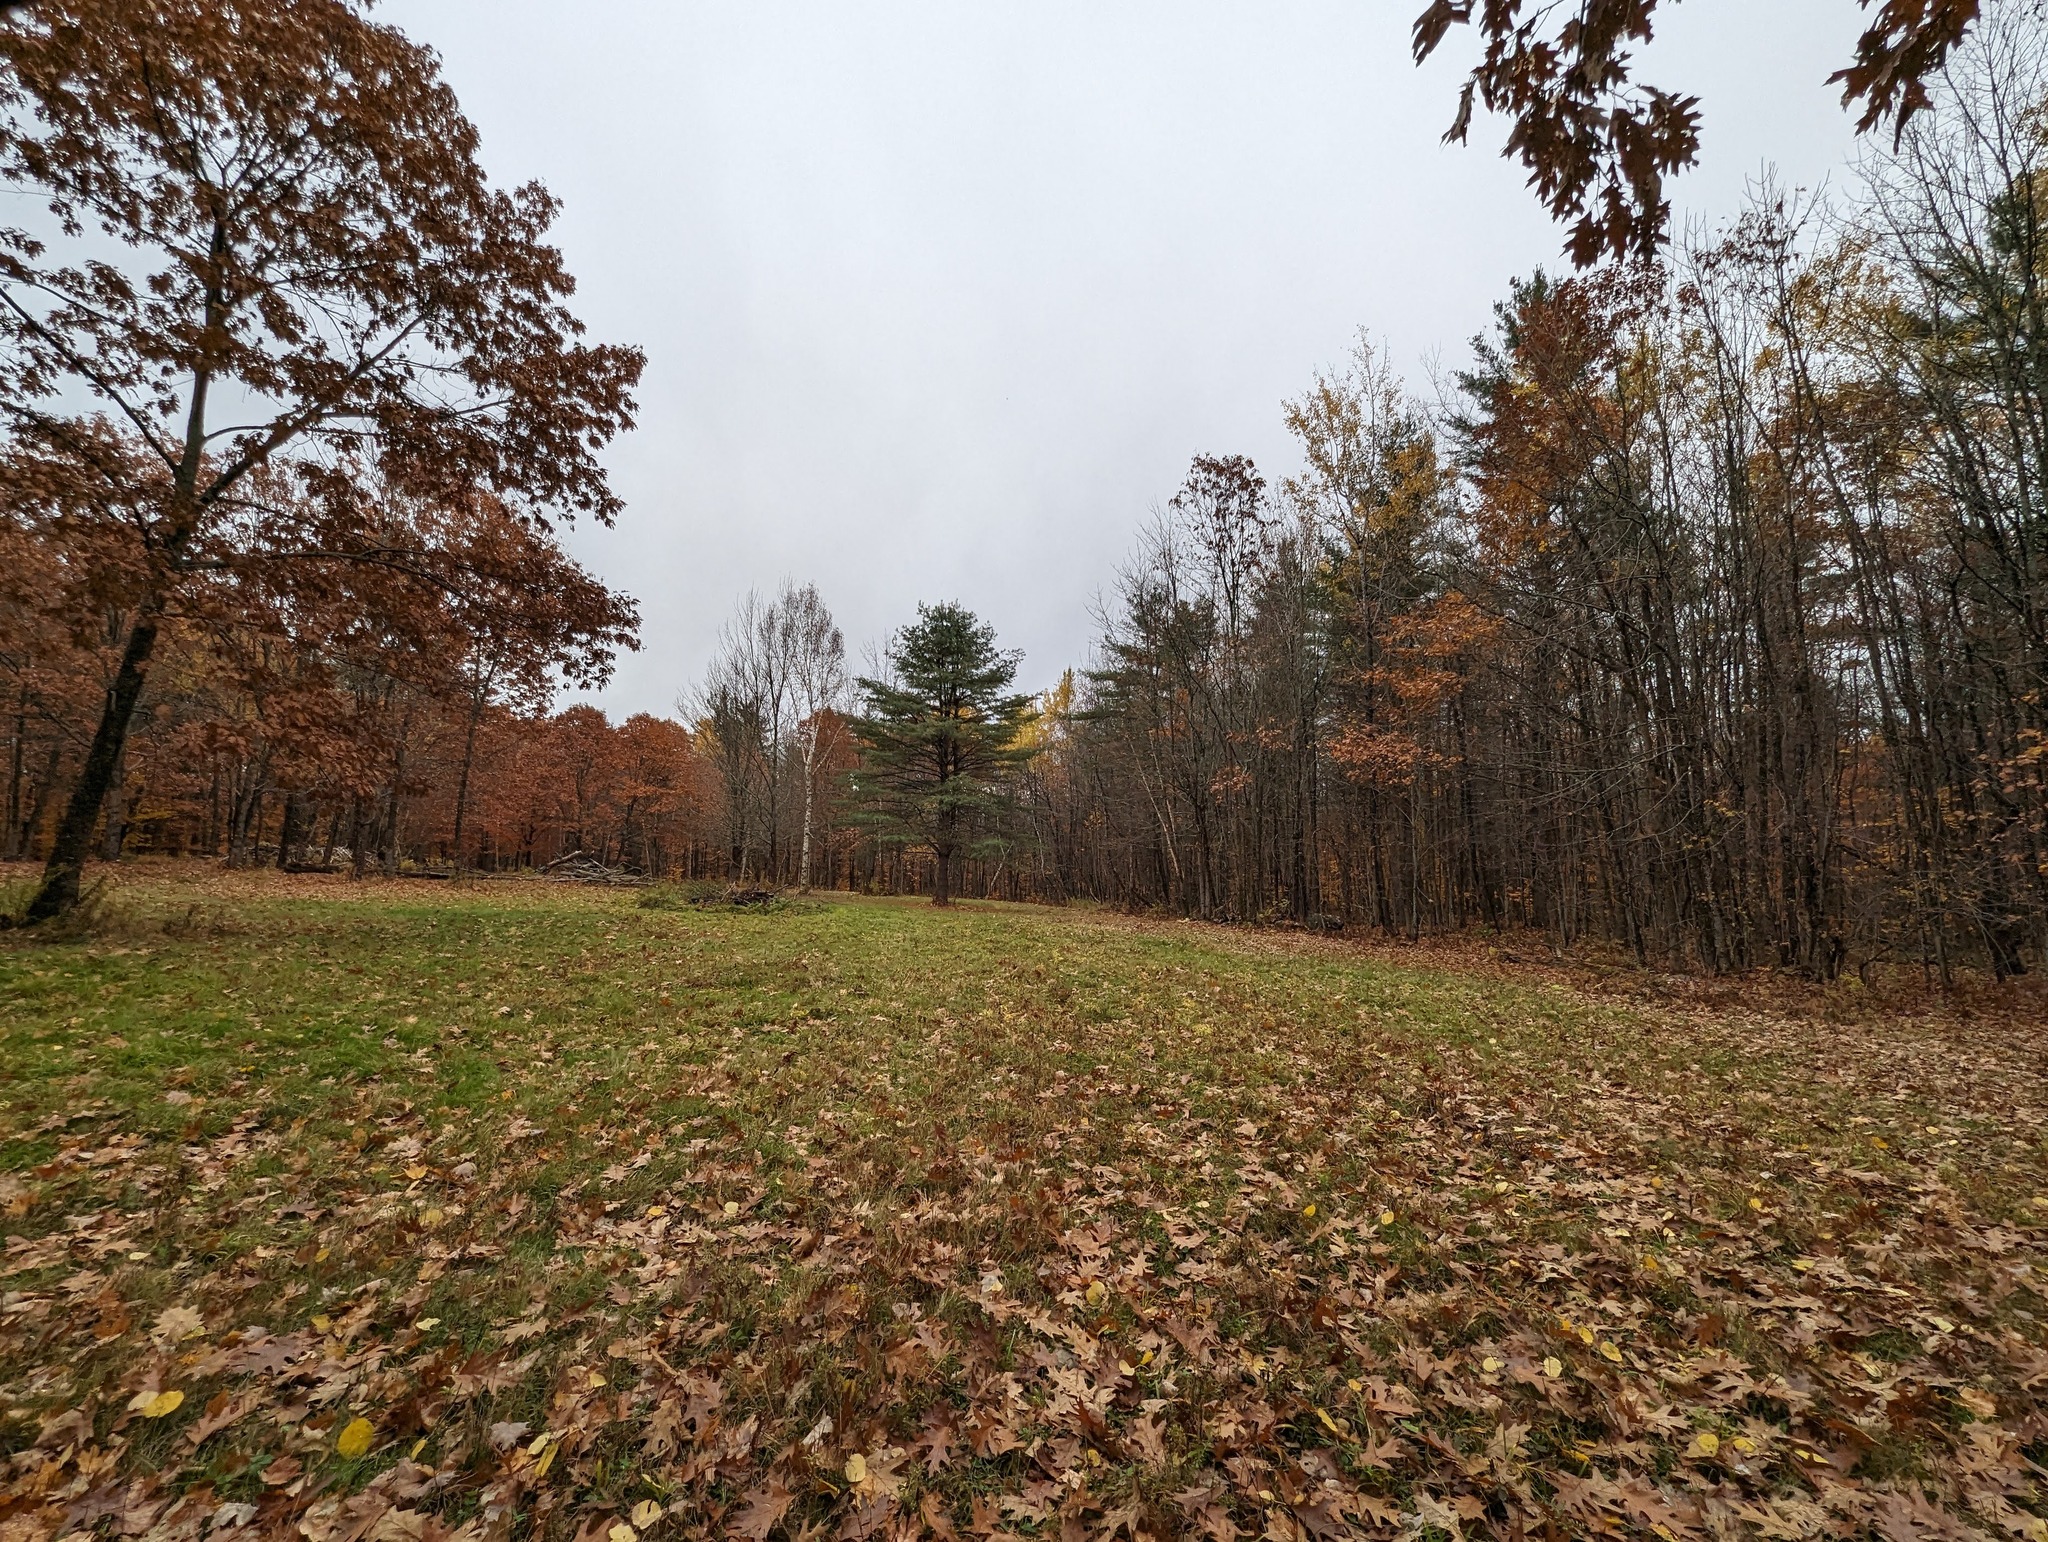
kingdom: Plantae
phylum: Tracheophyta
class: Pinopsida
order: Pinales
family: Pinaceae
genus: Pinus
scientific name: Pinus strobus
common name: Weymouth pine
